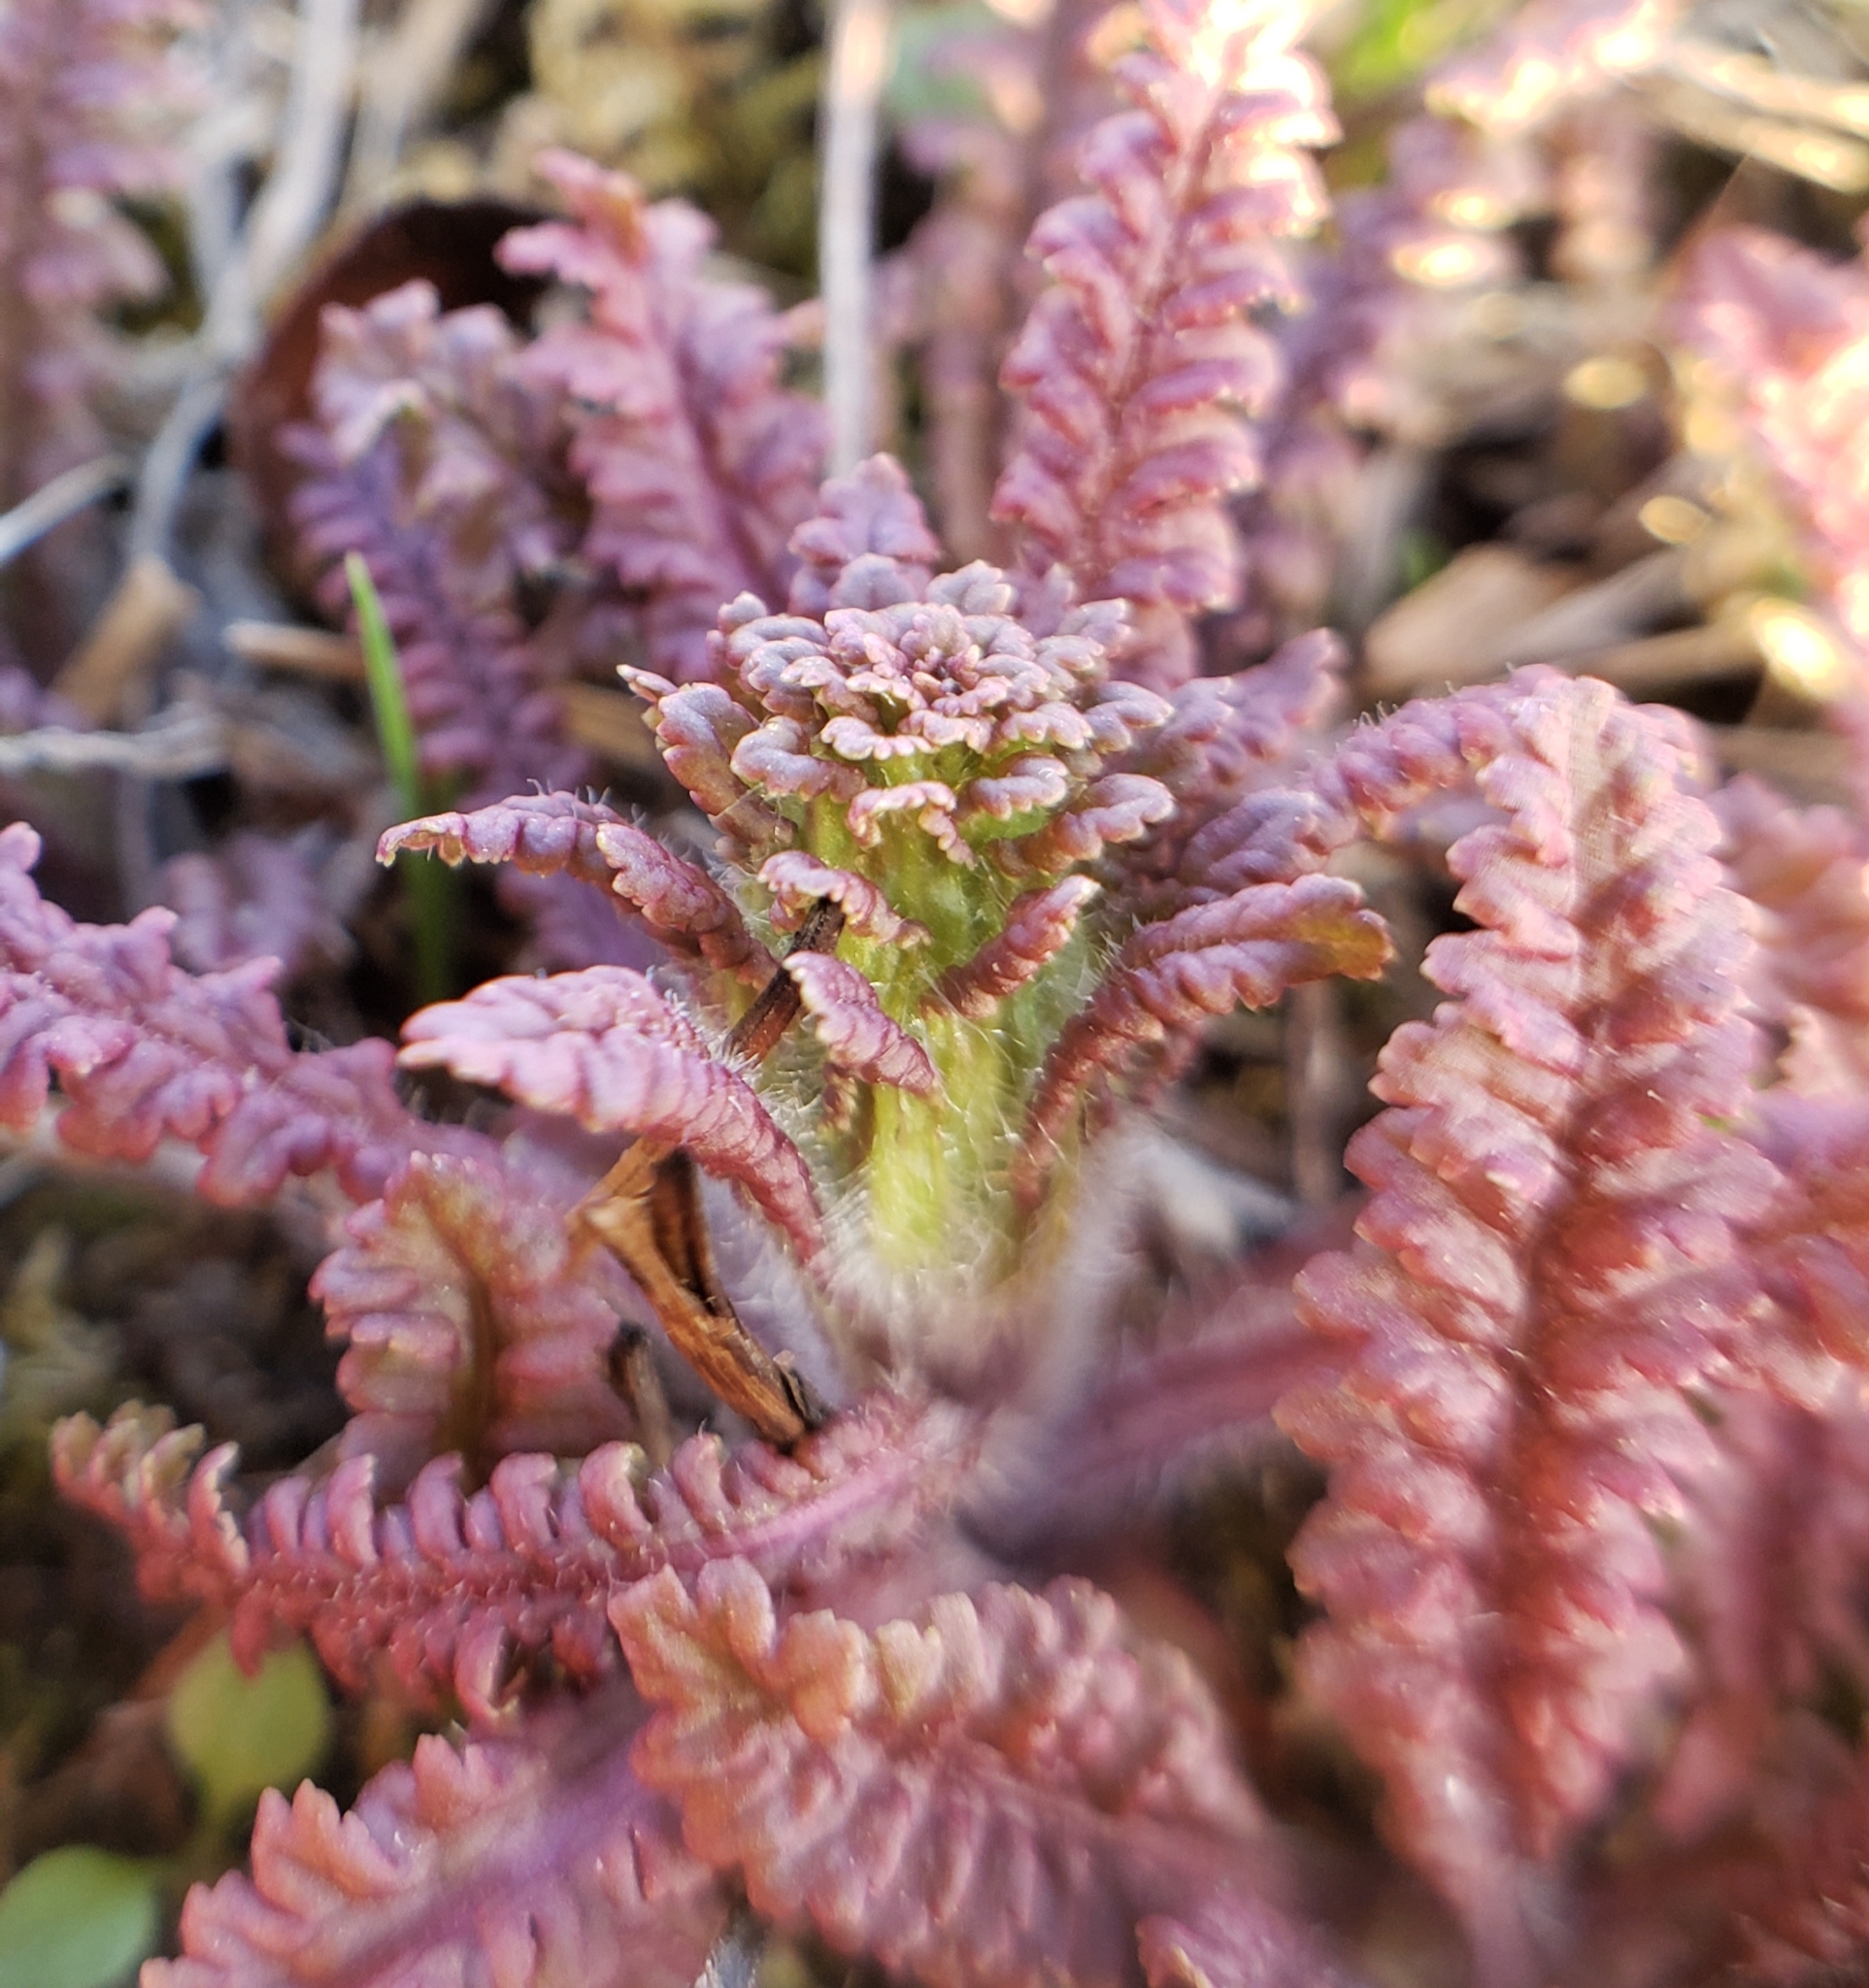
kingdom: Plantae
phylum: Tracheophyta
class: Magnoliopsida
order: Lamiales
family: Orobanchaceae
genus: Pedicularis
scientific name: Pedicularis canadensis
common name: Early lousewort
